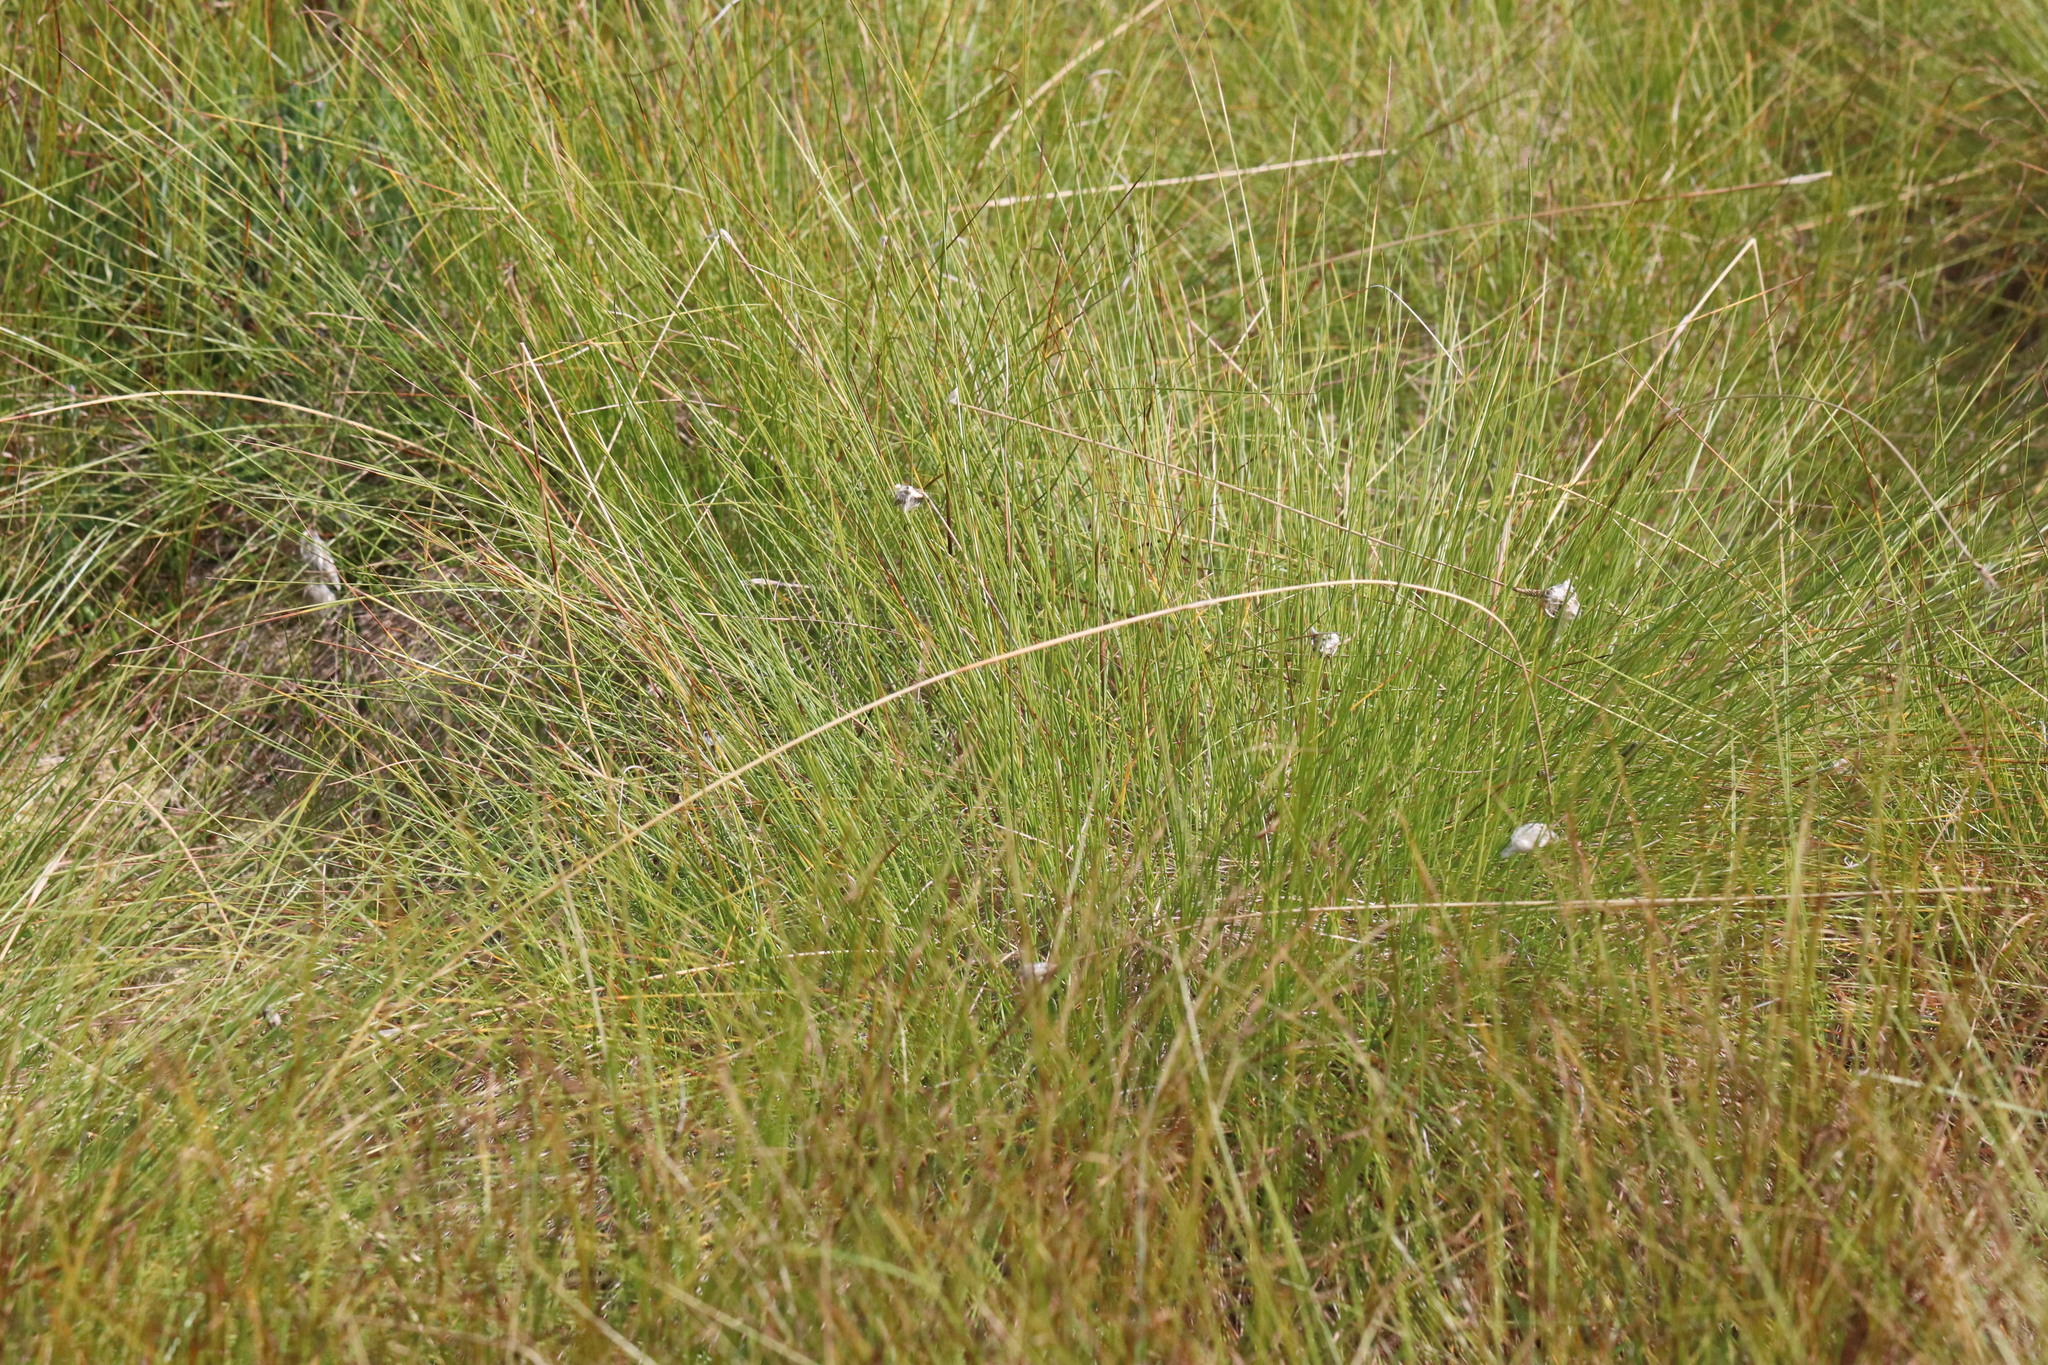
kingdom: Plantae
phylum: Tracheophyta
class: Liliopsida
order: Poales
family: Cyperaceae
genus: Eriophorum
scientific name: Eriophorum vaginatum
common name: Hare's-tail cottongrass
